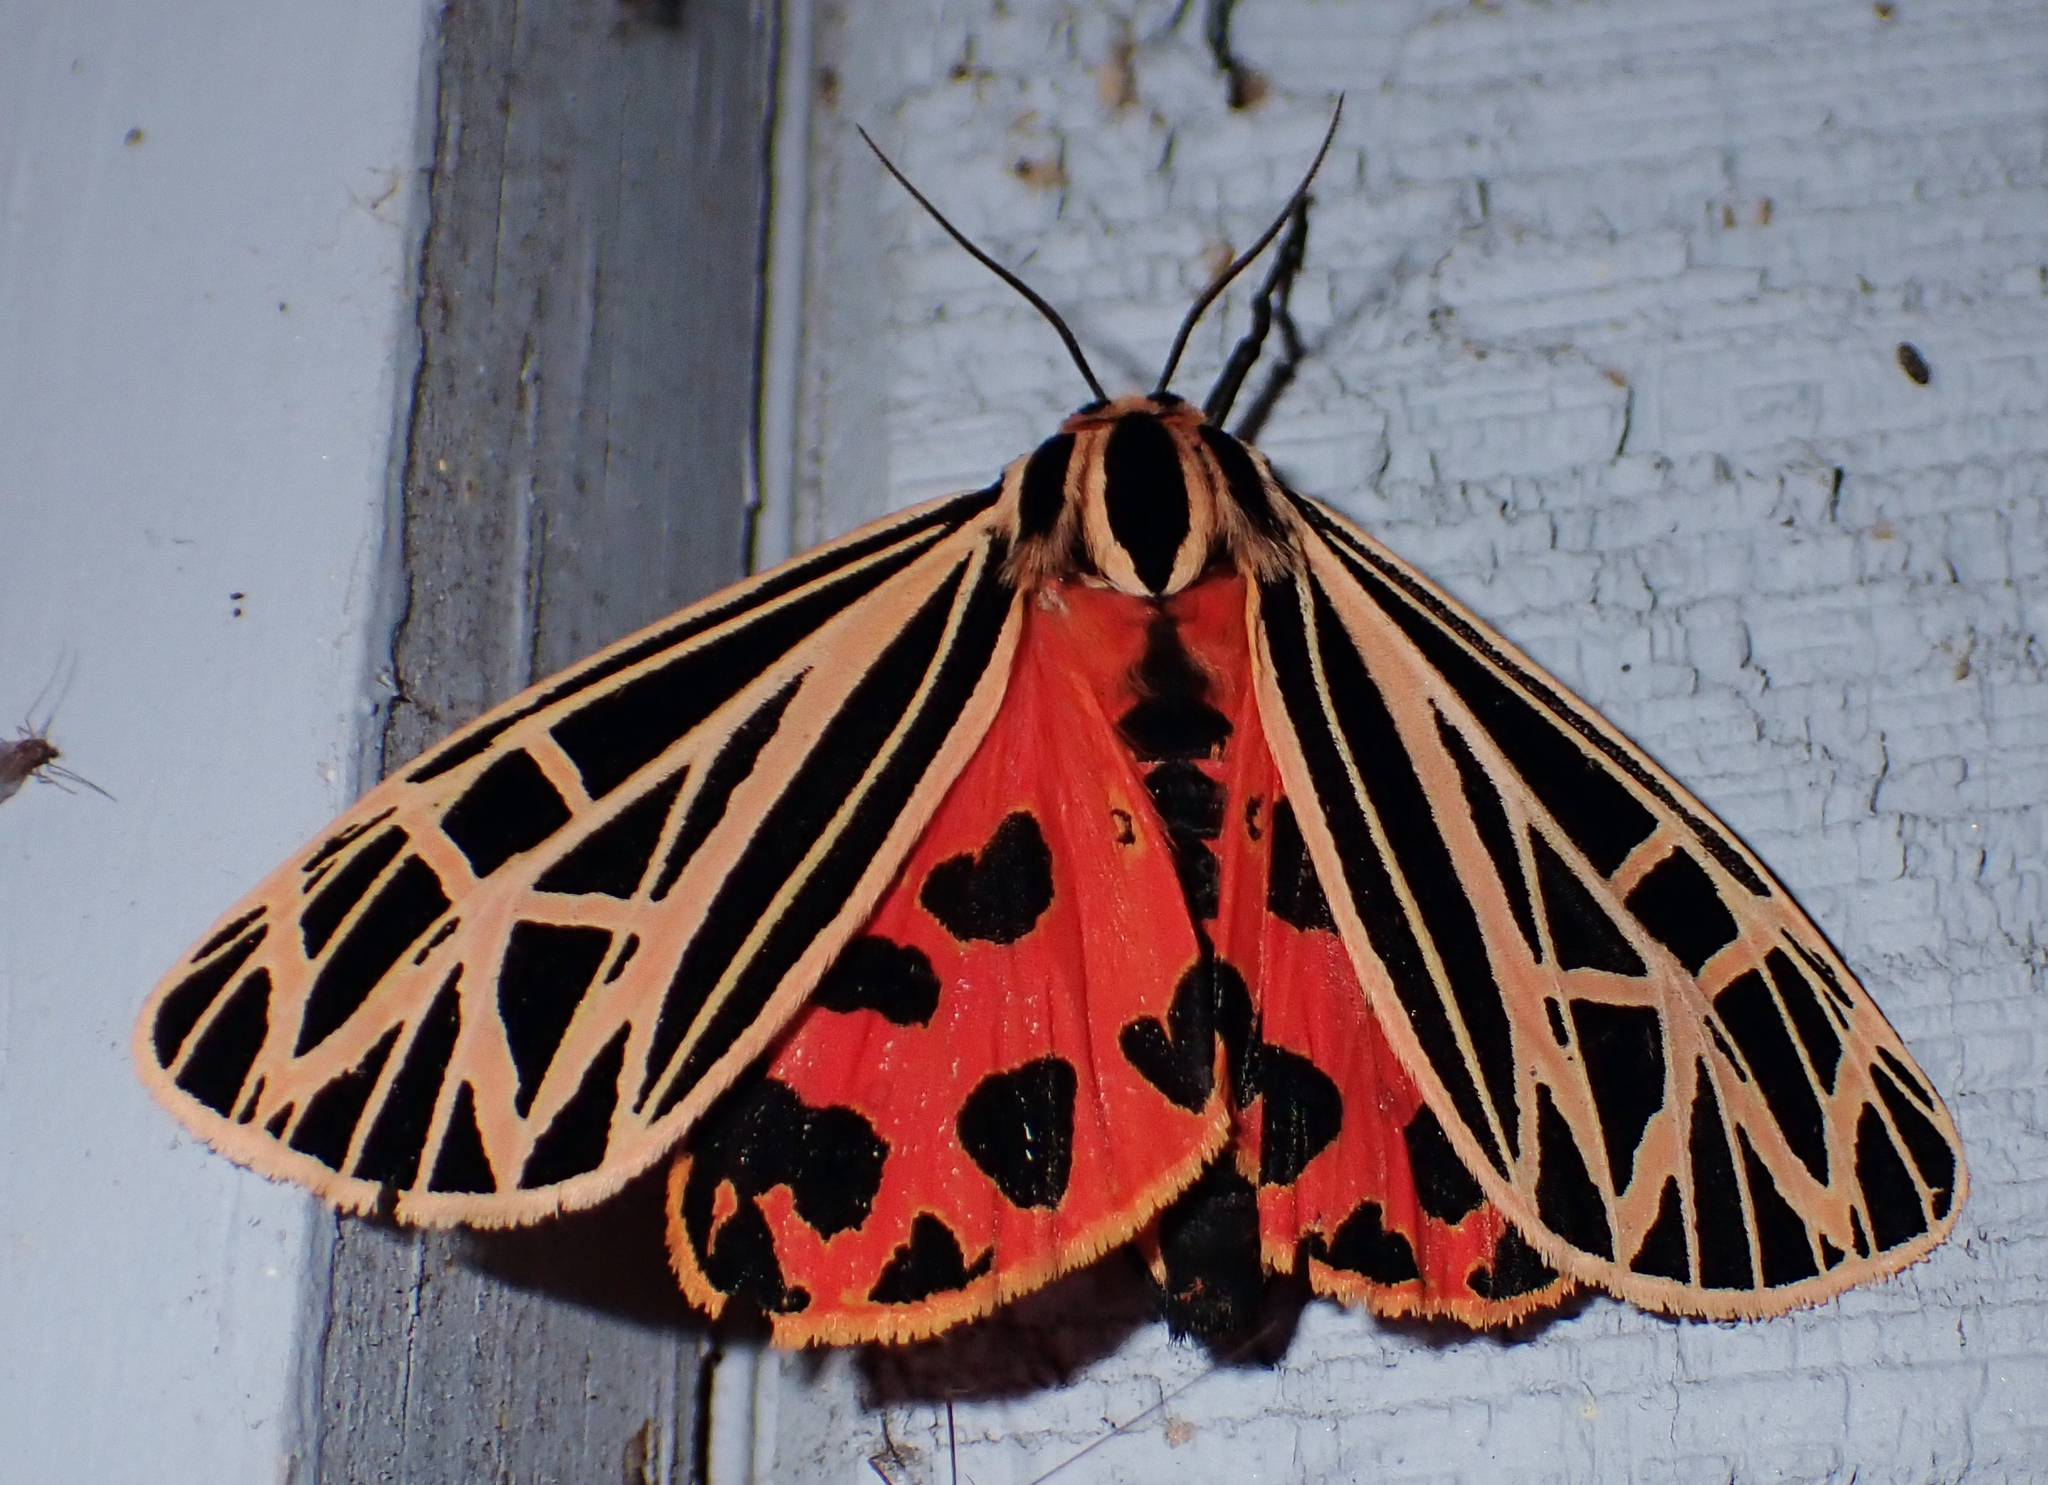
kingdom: Animalia
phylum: Arthropoda
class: Insecta
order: Lepidoptera
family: Erebidae
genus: Grammia
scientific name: Grammia virgo
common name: Virgin tiger moth
